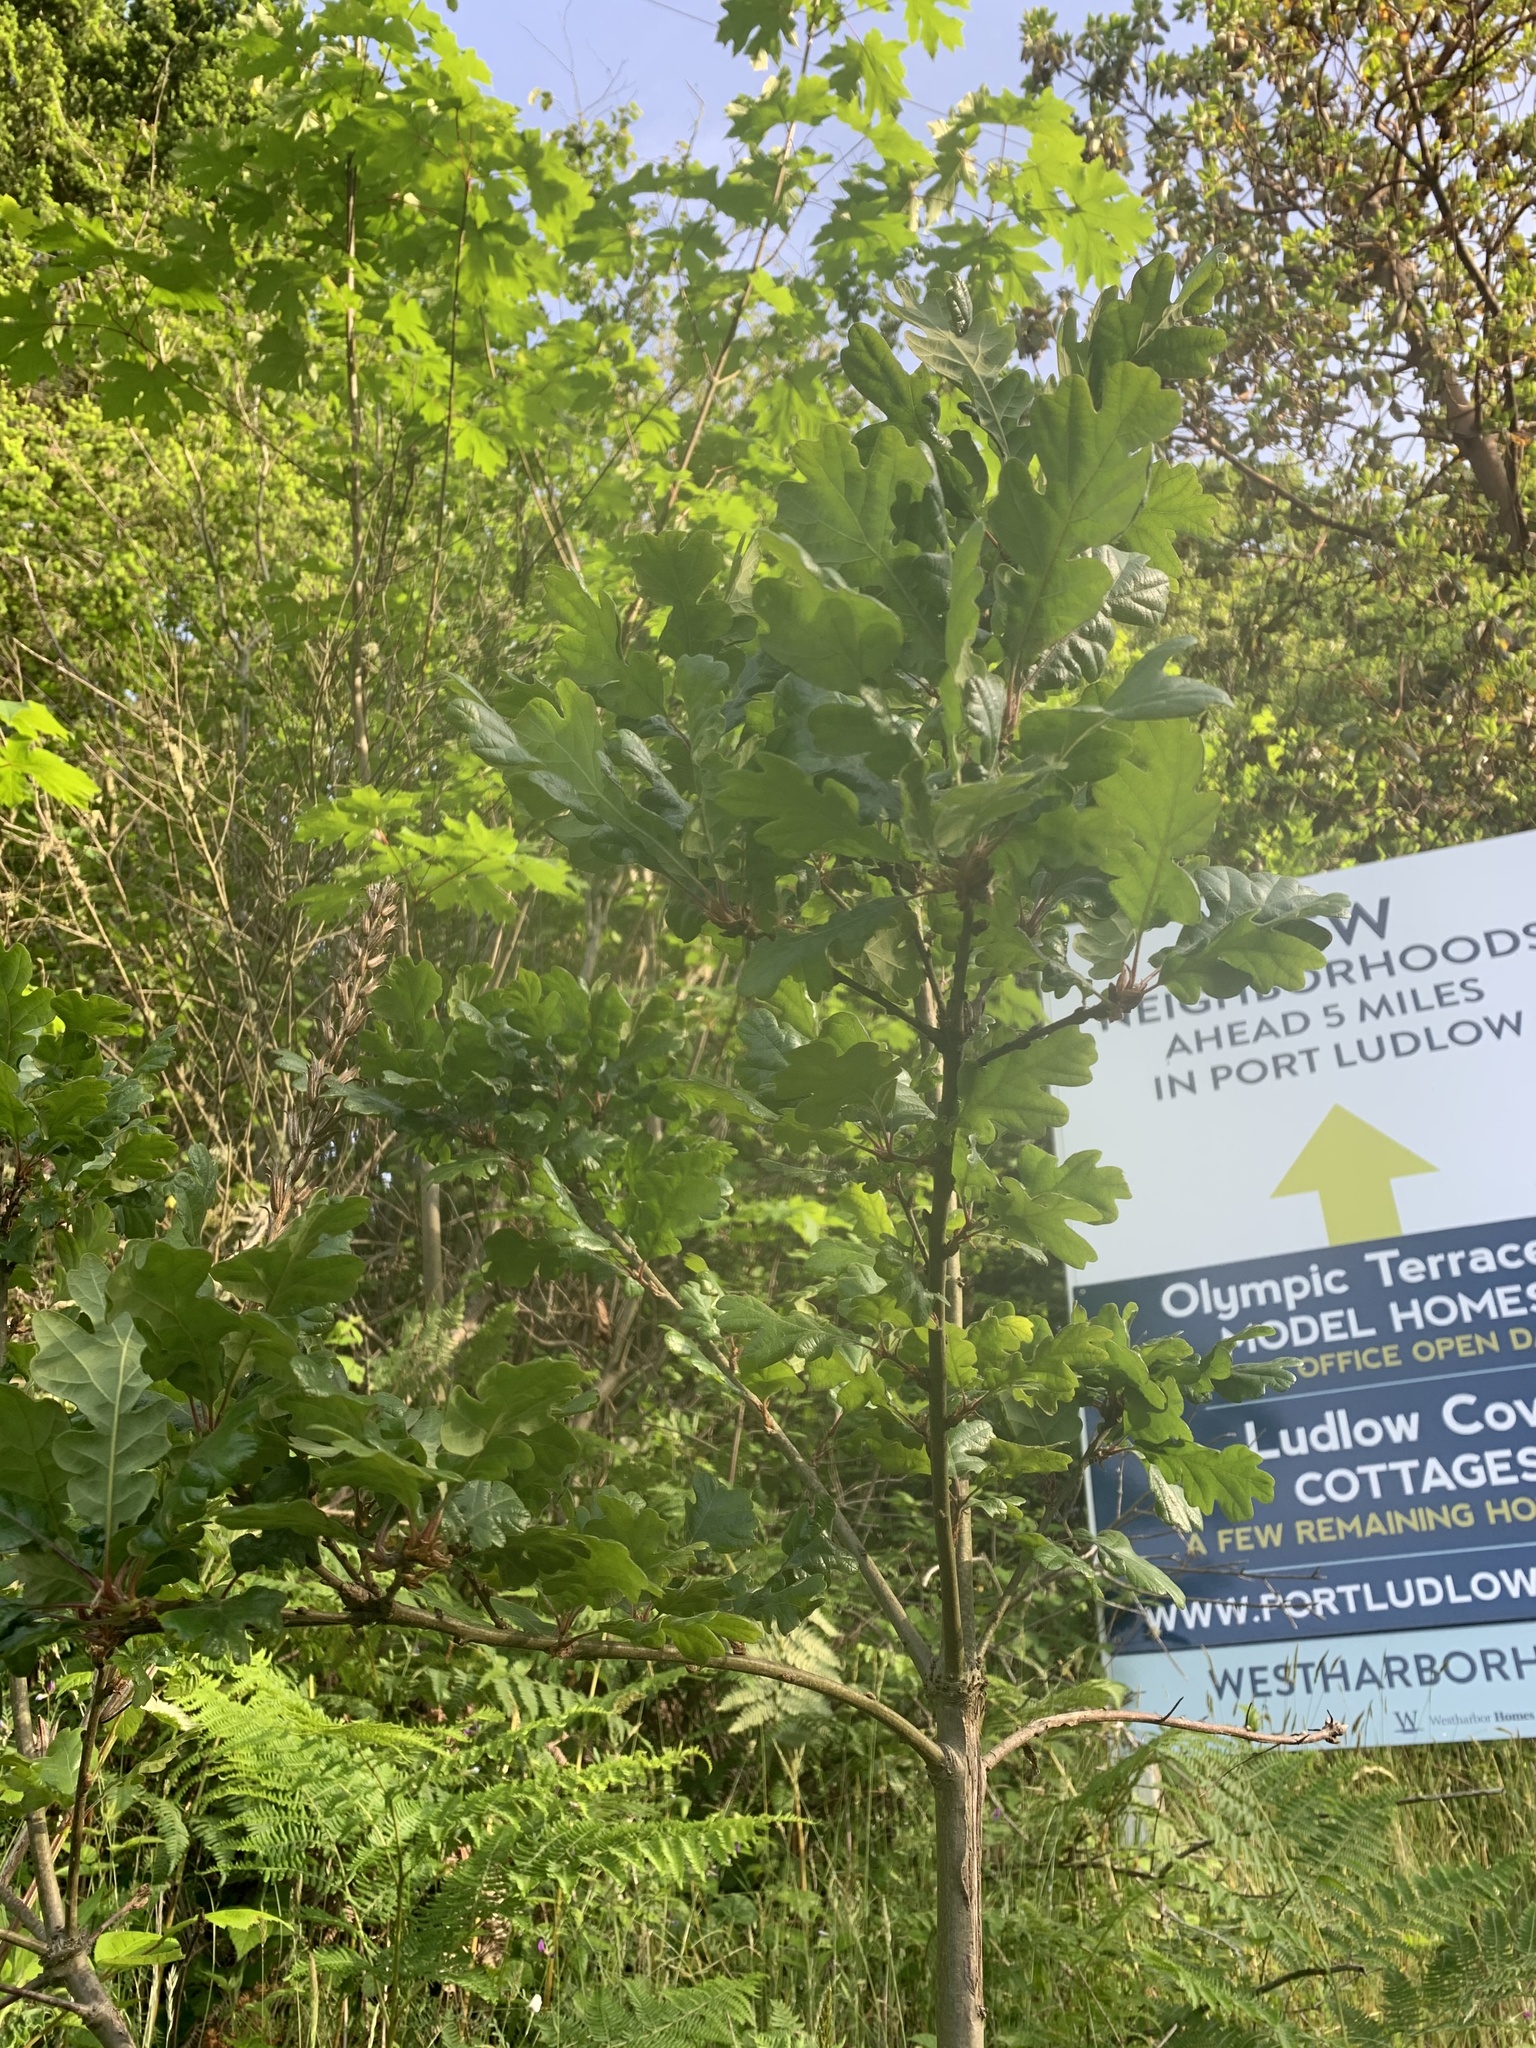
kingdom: Plantae
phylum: Tracheophyta
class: Magnoliopsida
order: Fagales
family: Fagaceae
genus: Quercus
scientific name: Quercus garryana
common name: Garry oak
